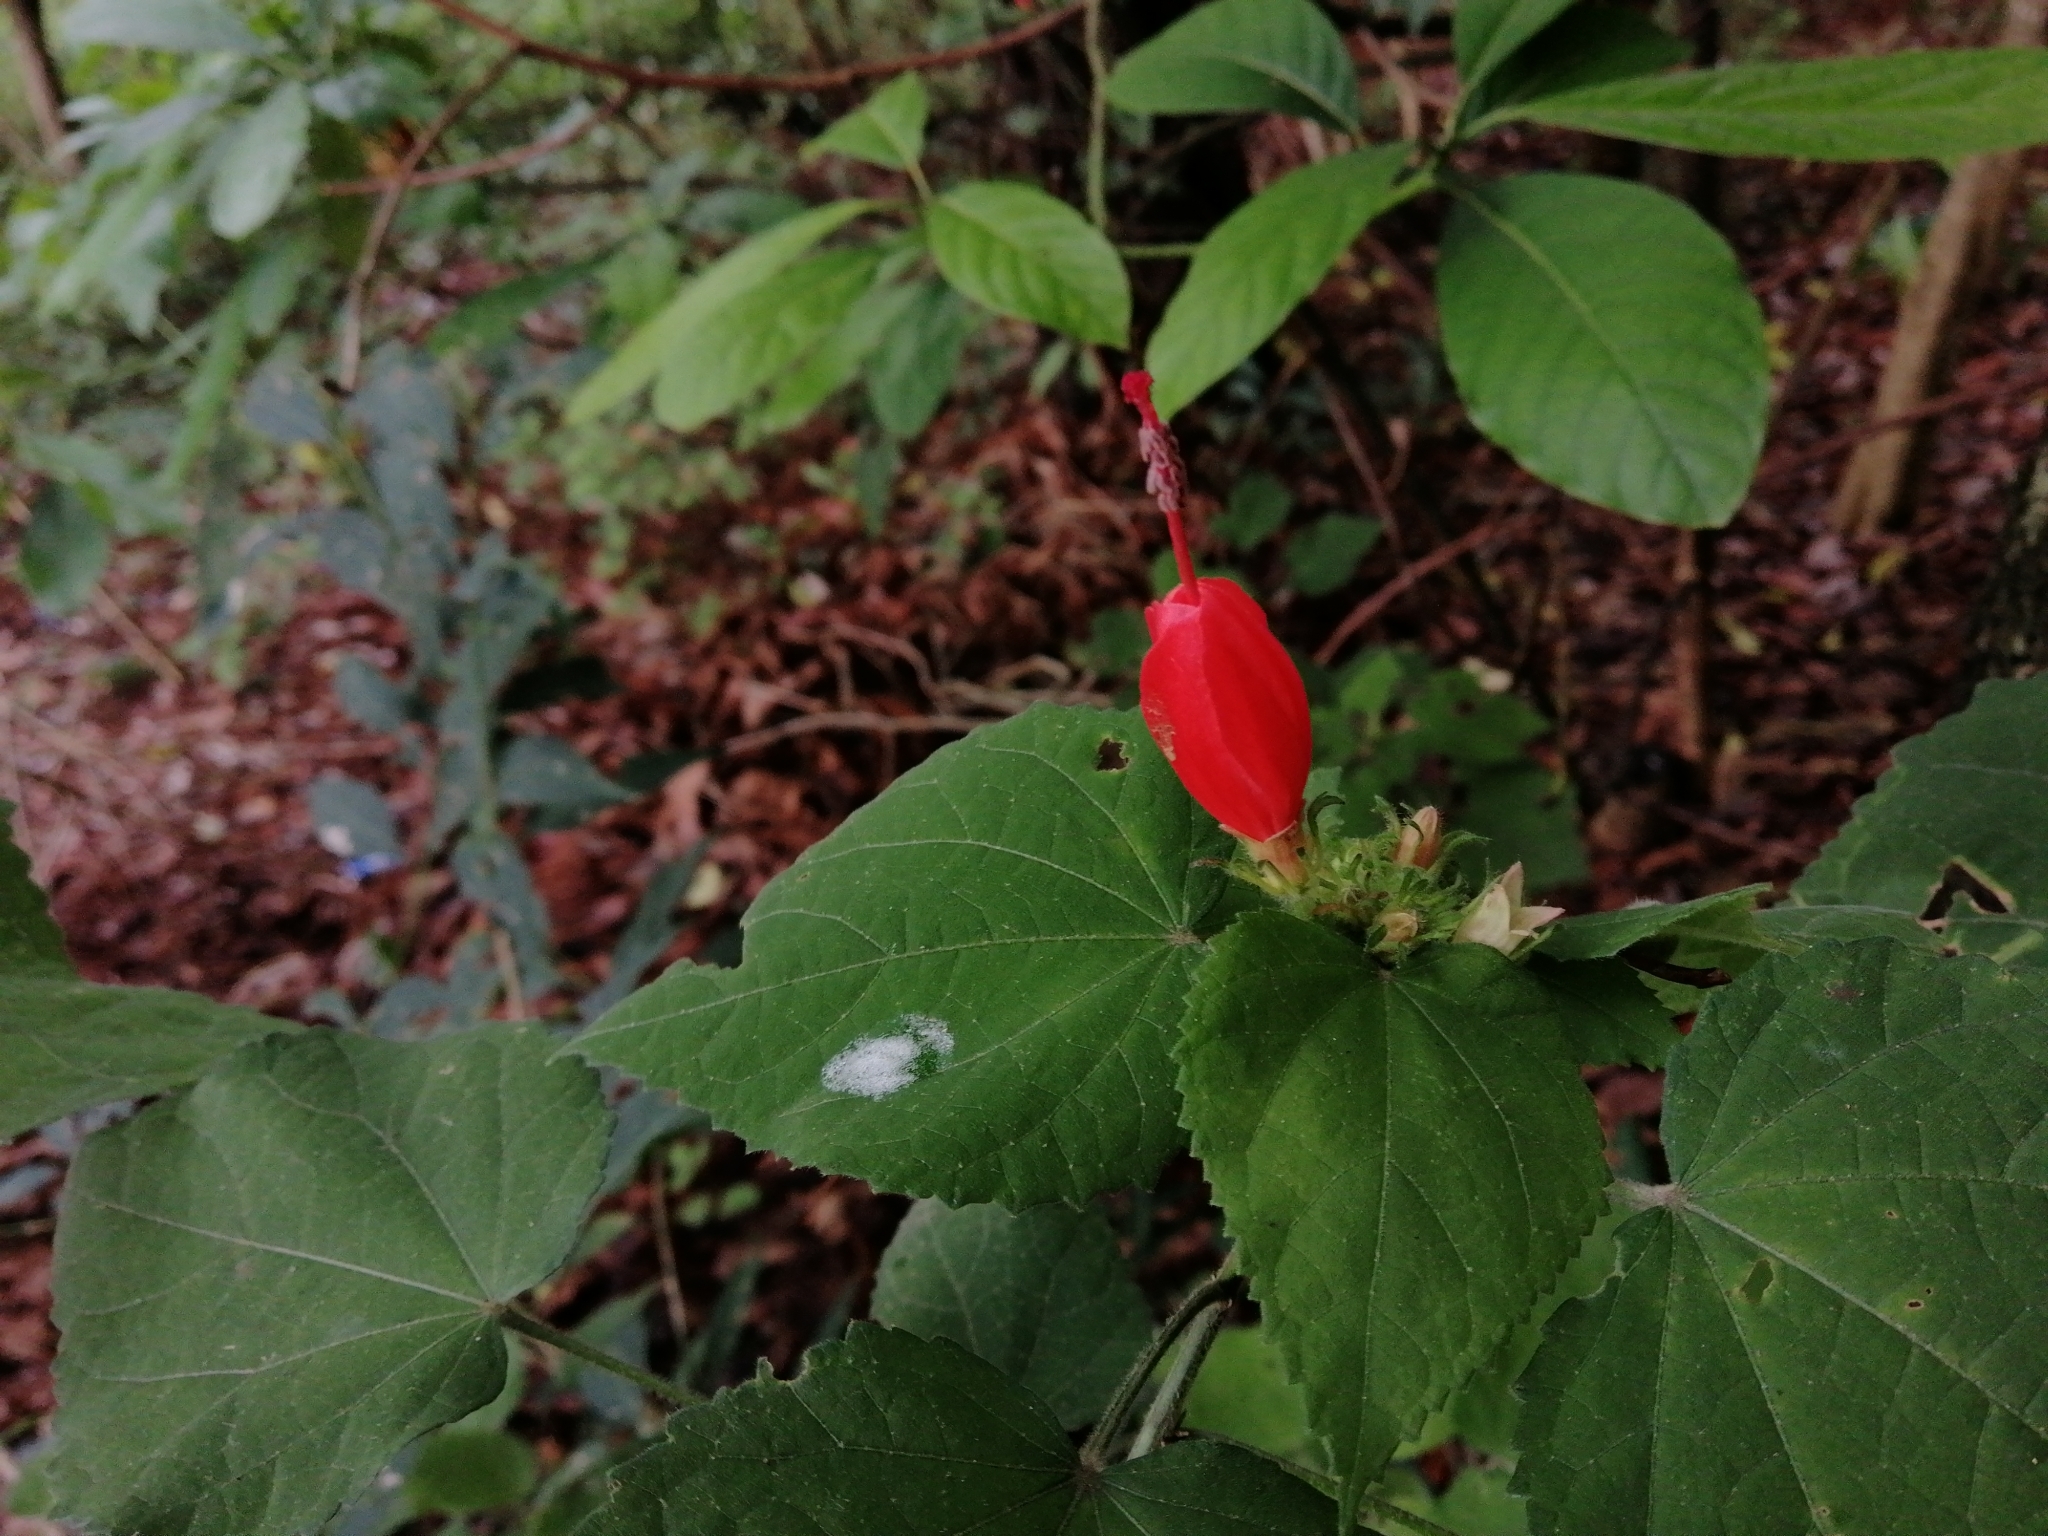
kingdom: Plantae
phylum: Tracheophyta
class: Magnoliopsida
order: Malvales
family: Malvaceae
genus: Malvaviscus
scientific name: Malvaviscus arboreus
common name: Wax mallow
